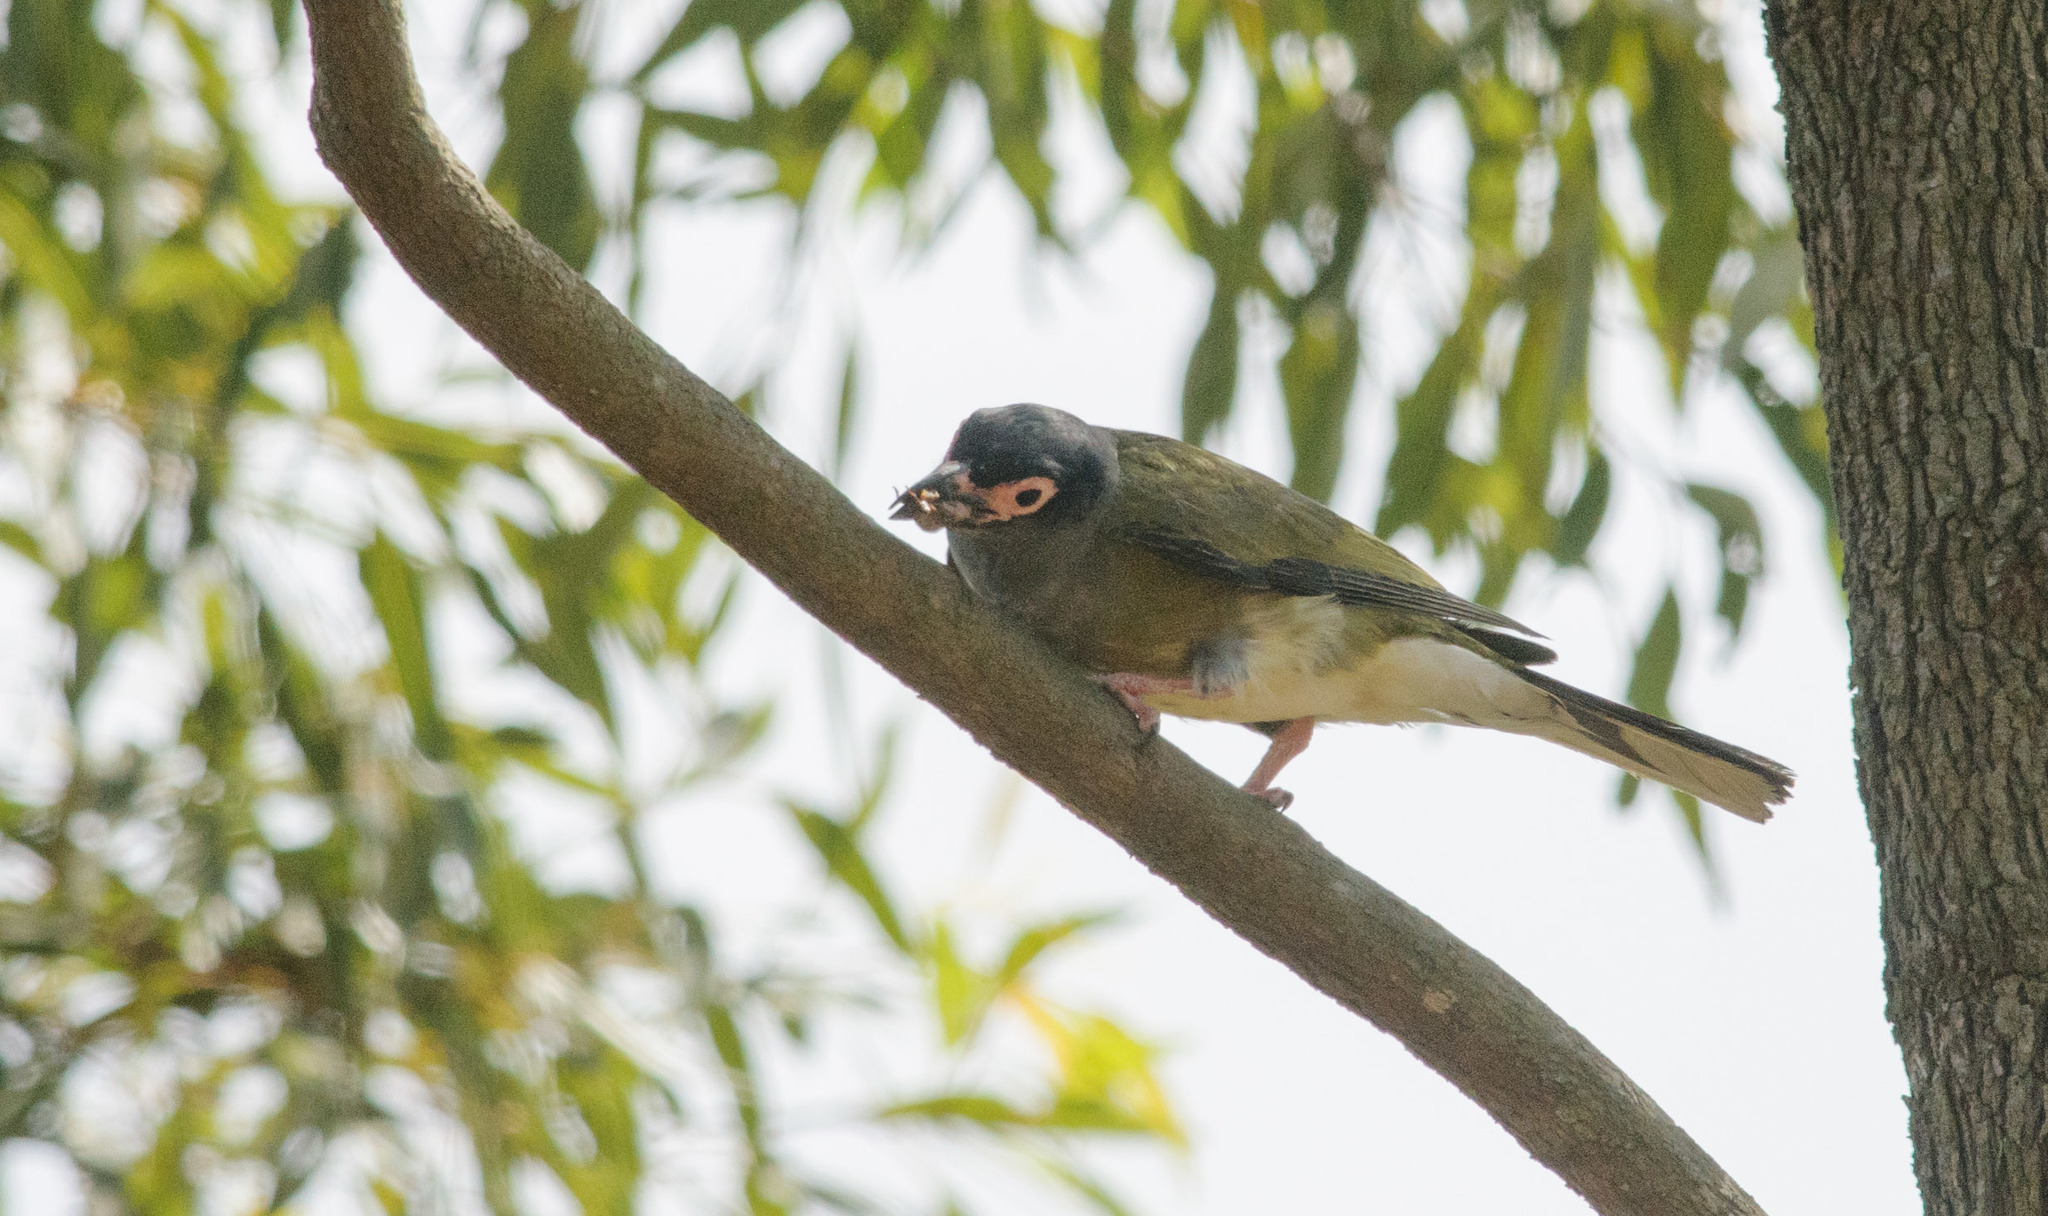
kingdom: Animalia
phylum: Chordata
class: Aves
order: Passeriformes
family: Oriolidae
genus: Sphecotheres
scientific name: Sphecotheres vieilloti
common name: Australasian figbird
